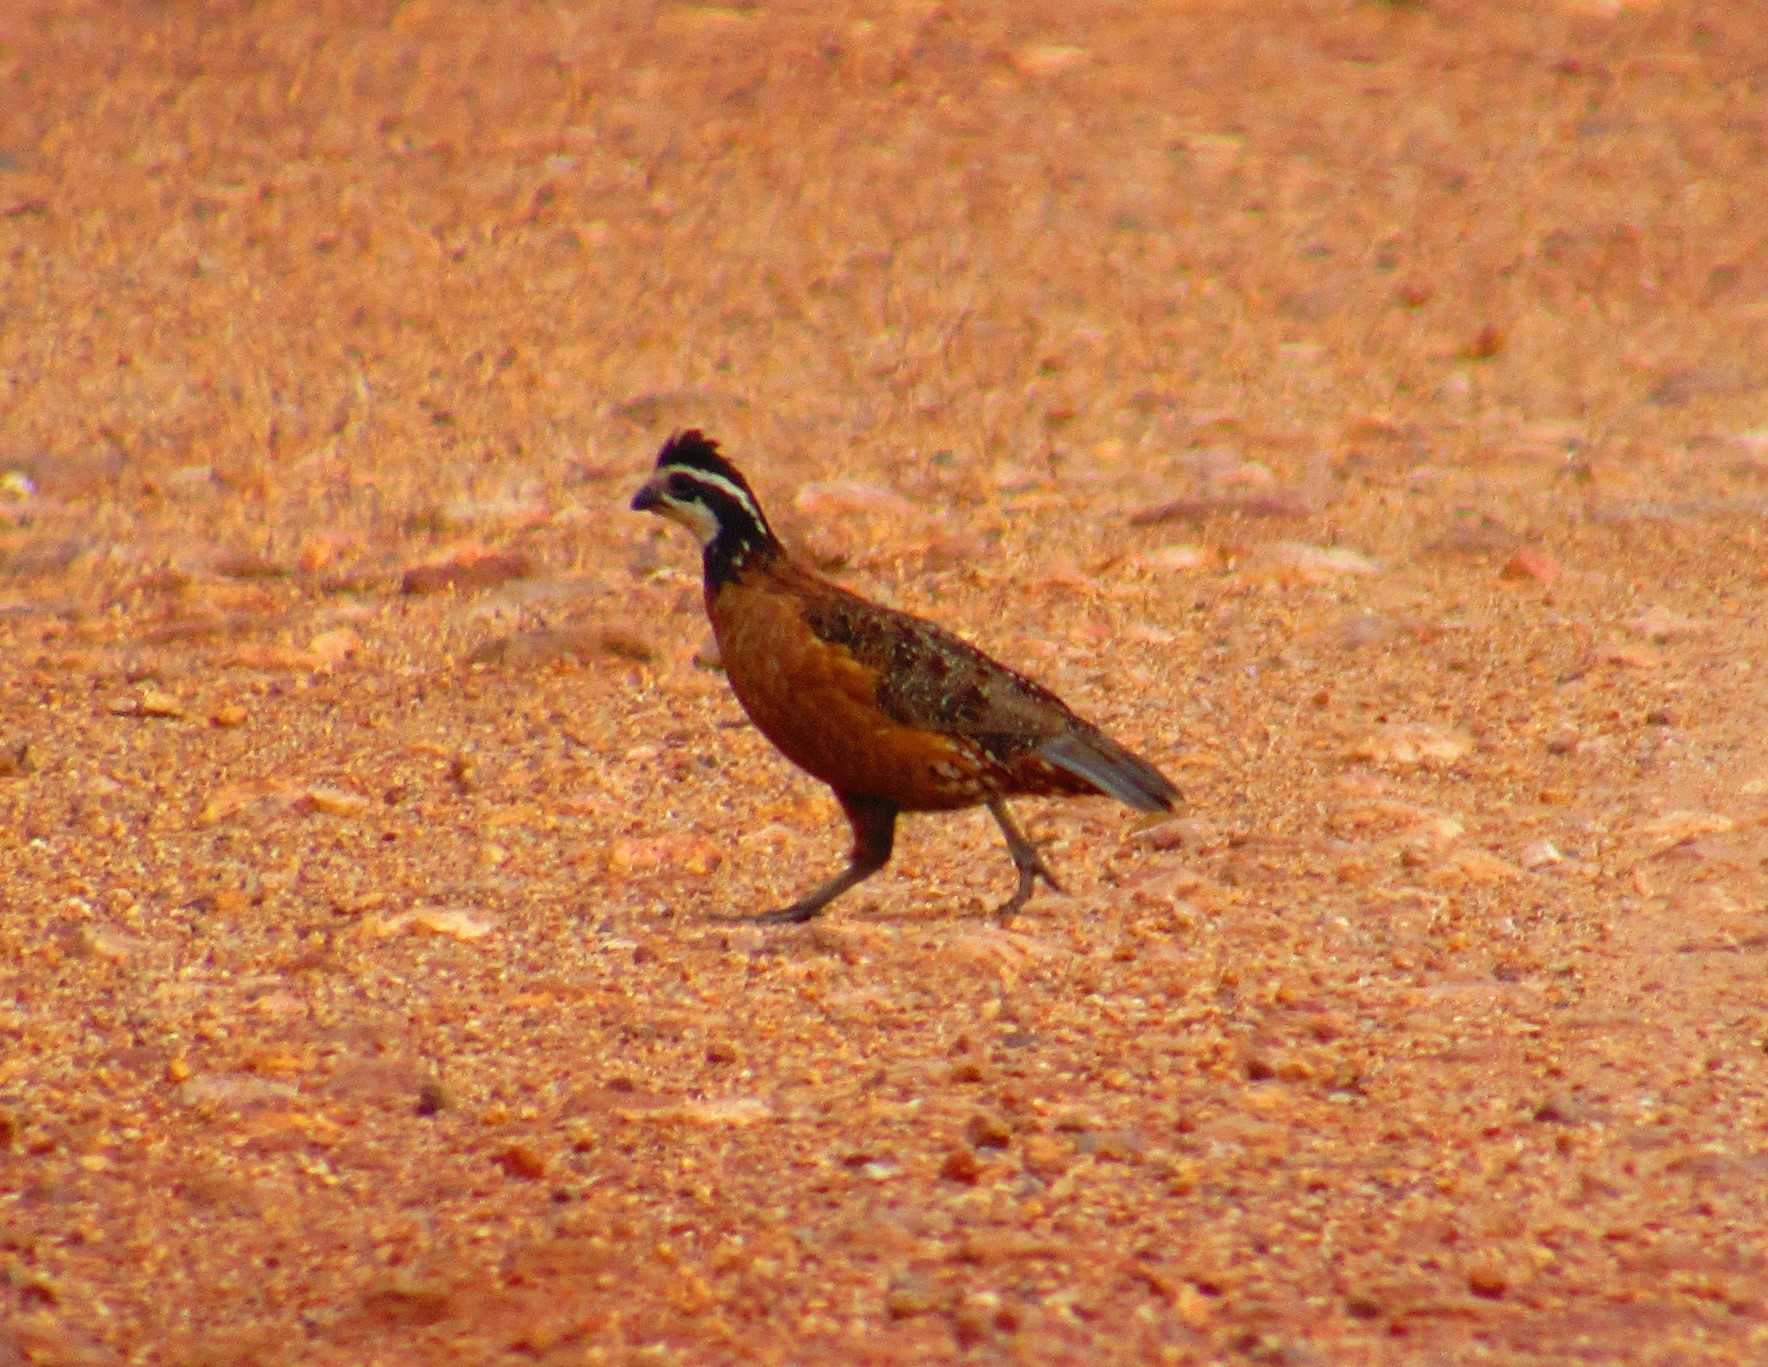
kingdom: Animalia
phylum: Chordata
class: Aves
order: Galliformes
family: Odontophoridae
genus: Colinus
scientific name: Colinus virginianus
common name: Northern bobwhite
